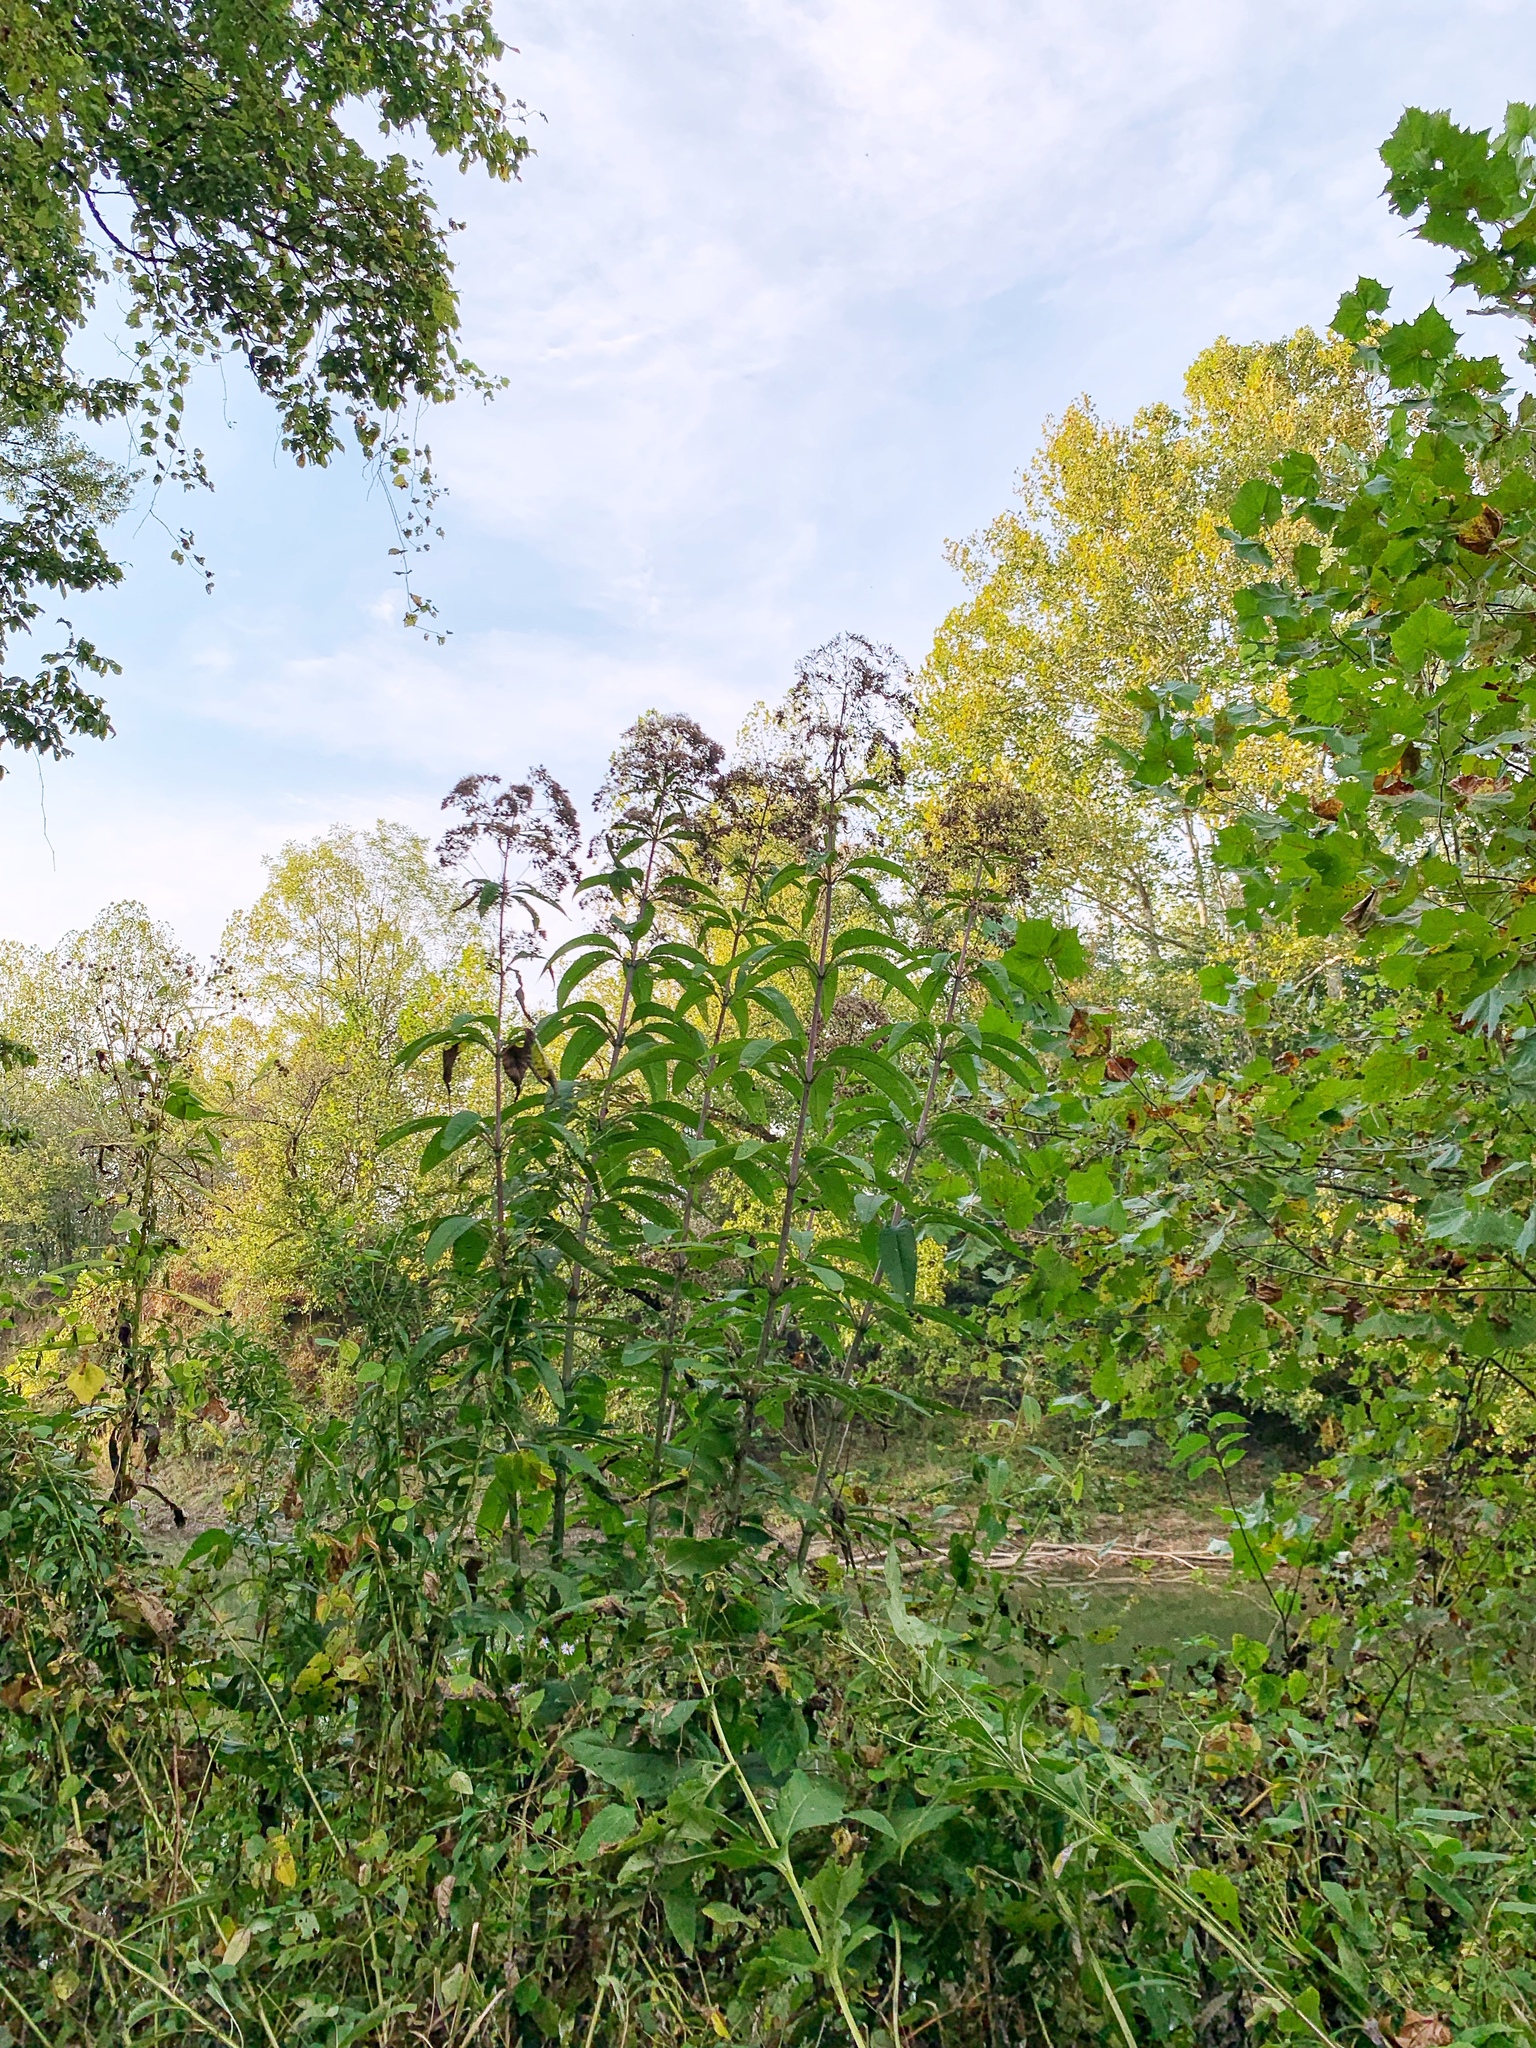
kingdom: Plantae
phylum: Tracheophyta
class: Magnoliopsida
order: Asterales
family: Asteraceae
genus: Eutrochium
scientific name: Eutrochium fistulosum
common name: Trumpetweed
